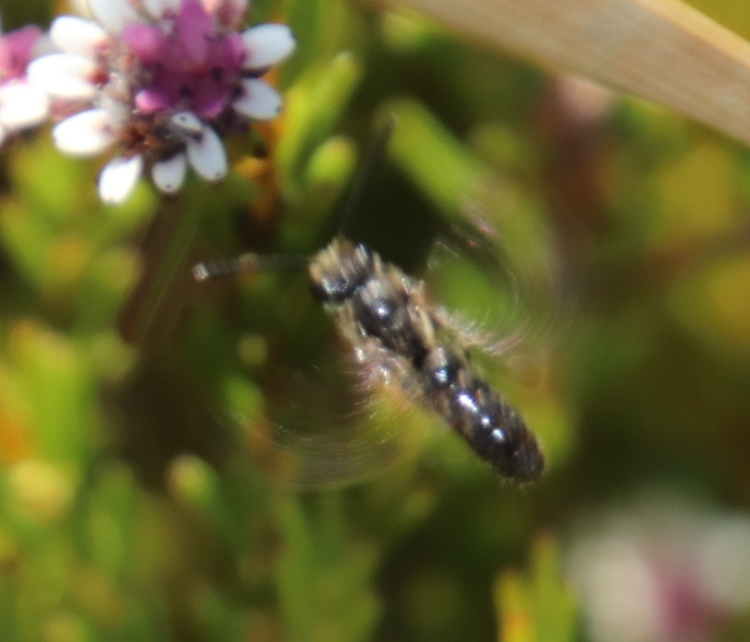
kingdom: Plantae
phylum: Tracheophyta
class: Magnoliopsida
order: Bruniales
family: Bruniaceae
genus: Staavia
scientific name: Staavia radiata
